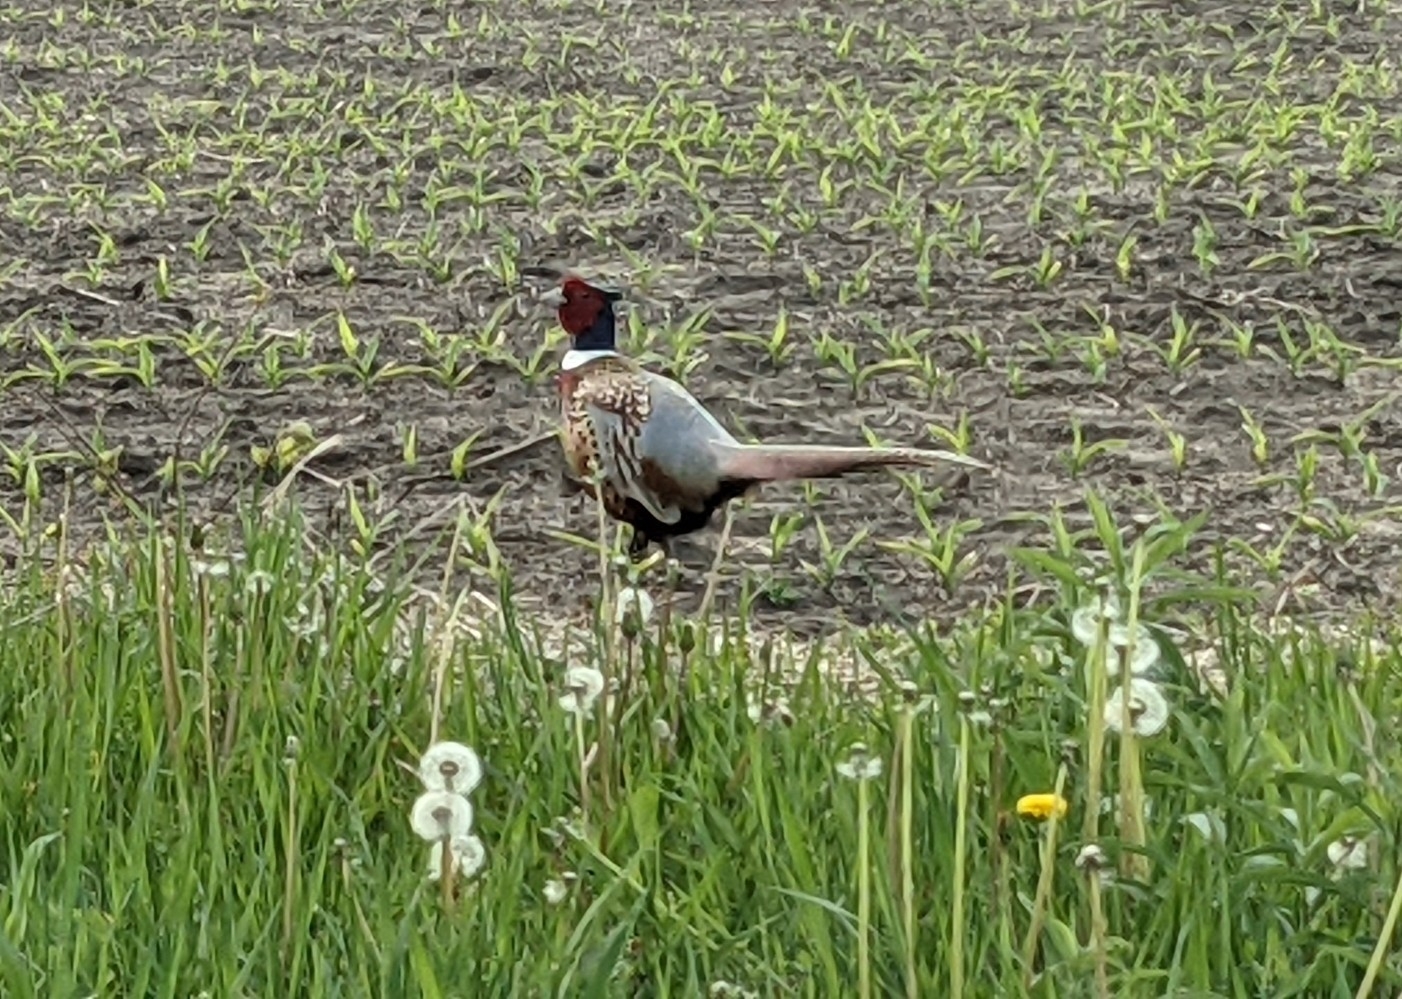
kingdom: Animalia
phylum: Chordata
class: Aves
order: Galliformes
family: Phasianidae
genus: Phasianus
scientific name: Phasianus colchicus
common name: Common pheasant
